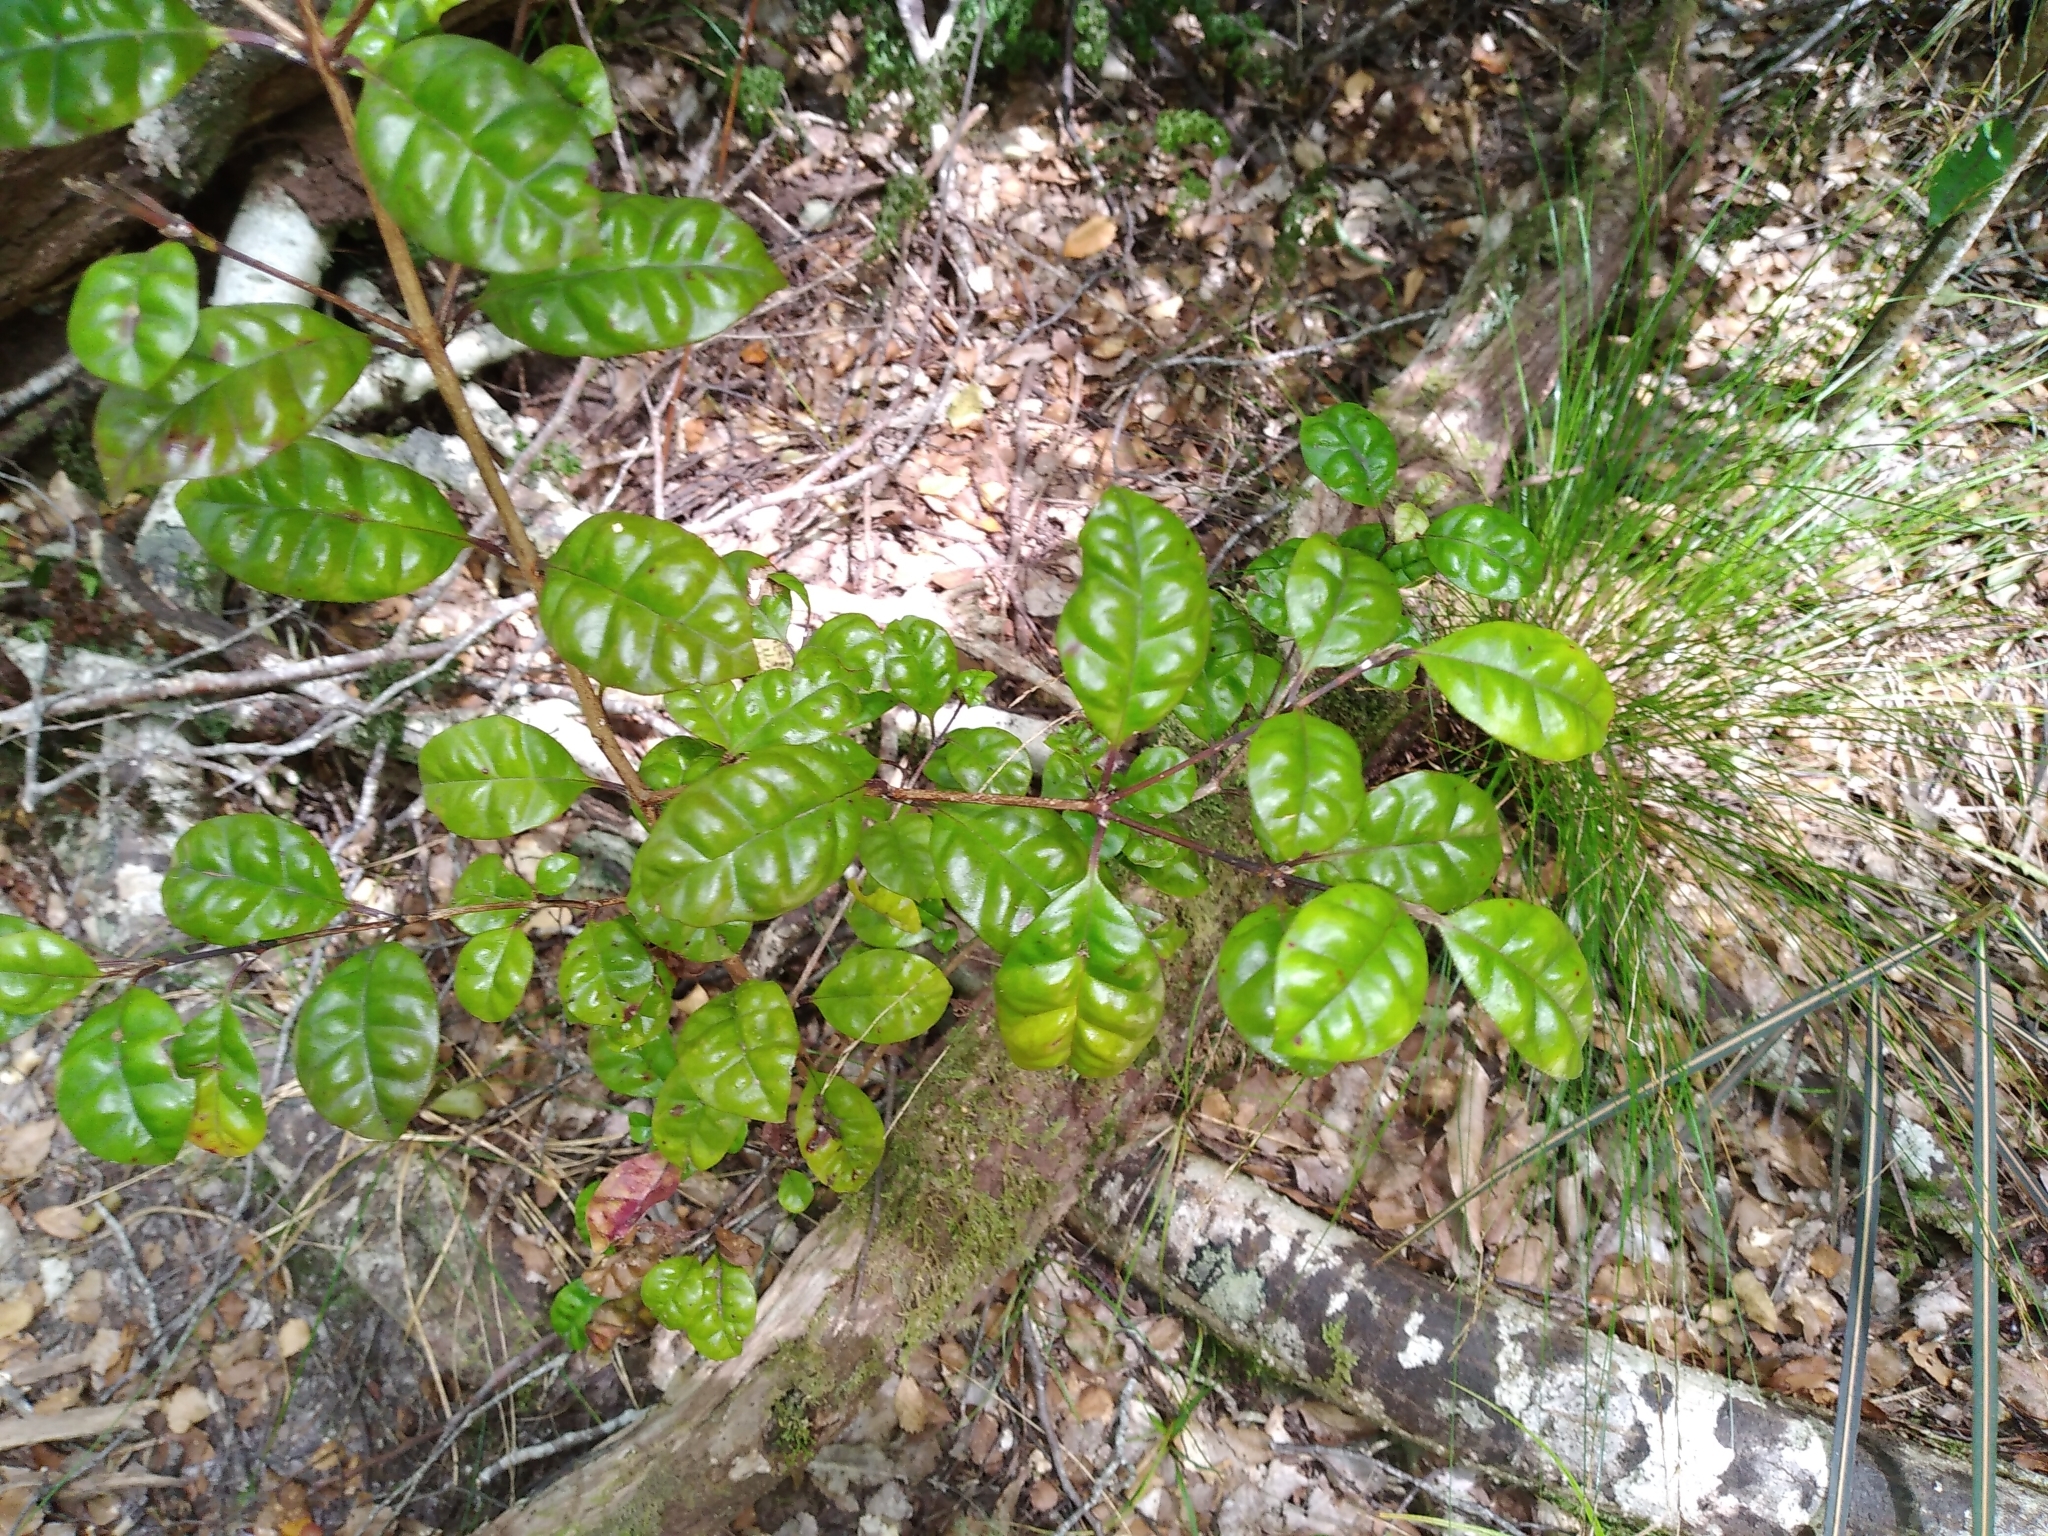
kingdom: Plantae
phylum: Tracheophyta
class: Magnoliopsida
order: Myrtales
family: Myrtaceae
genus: Lophomyrtus
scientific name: Lophomyrtus bullata
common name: Rama rama
